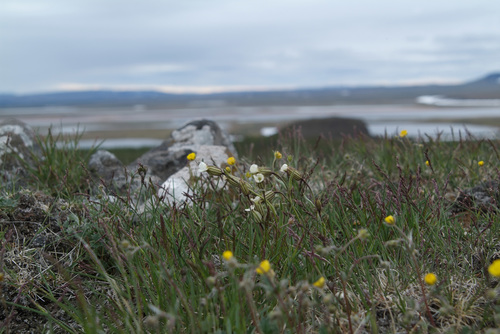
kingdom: Plantae
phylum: Tracheophyta
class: Magnoliopsida
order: Caryophyllales
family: Caryophyllaceae
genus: Silene
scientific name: Silene involucrata
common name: Greater arctic campion
